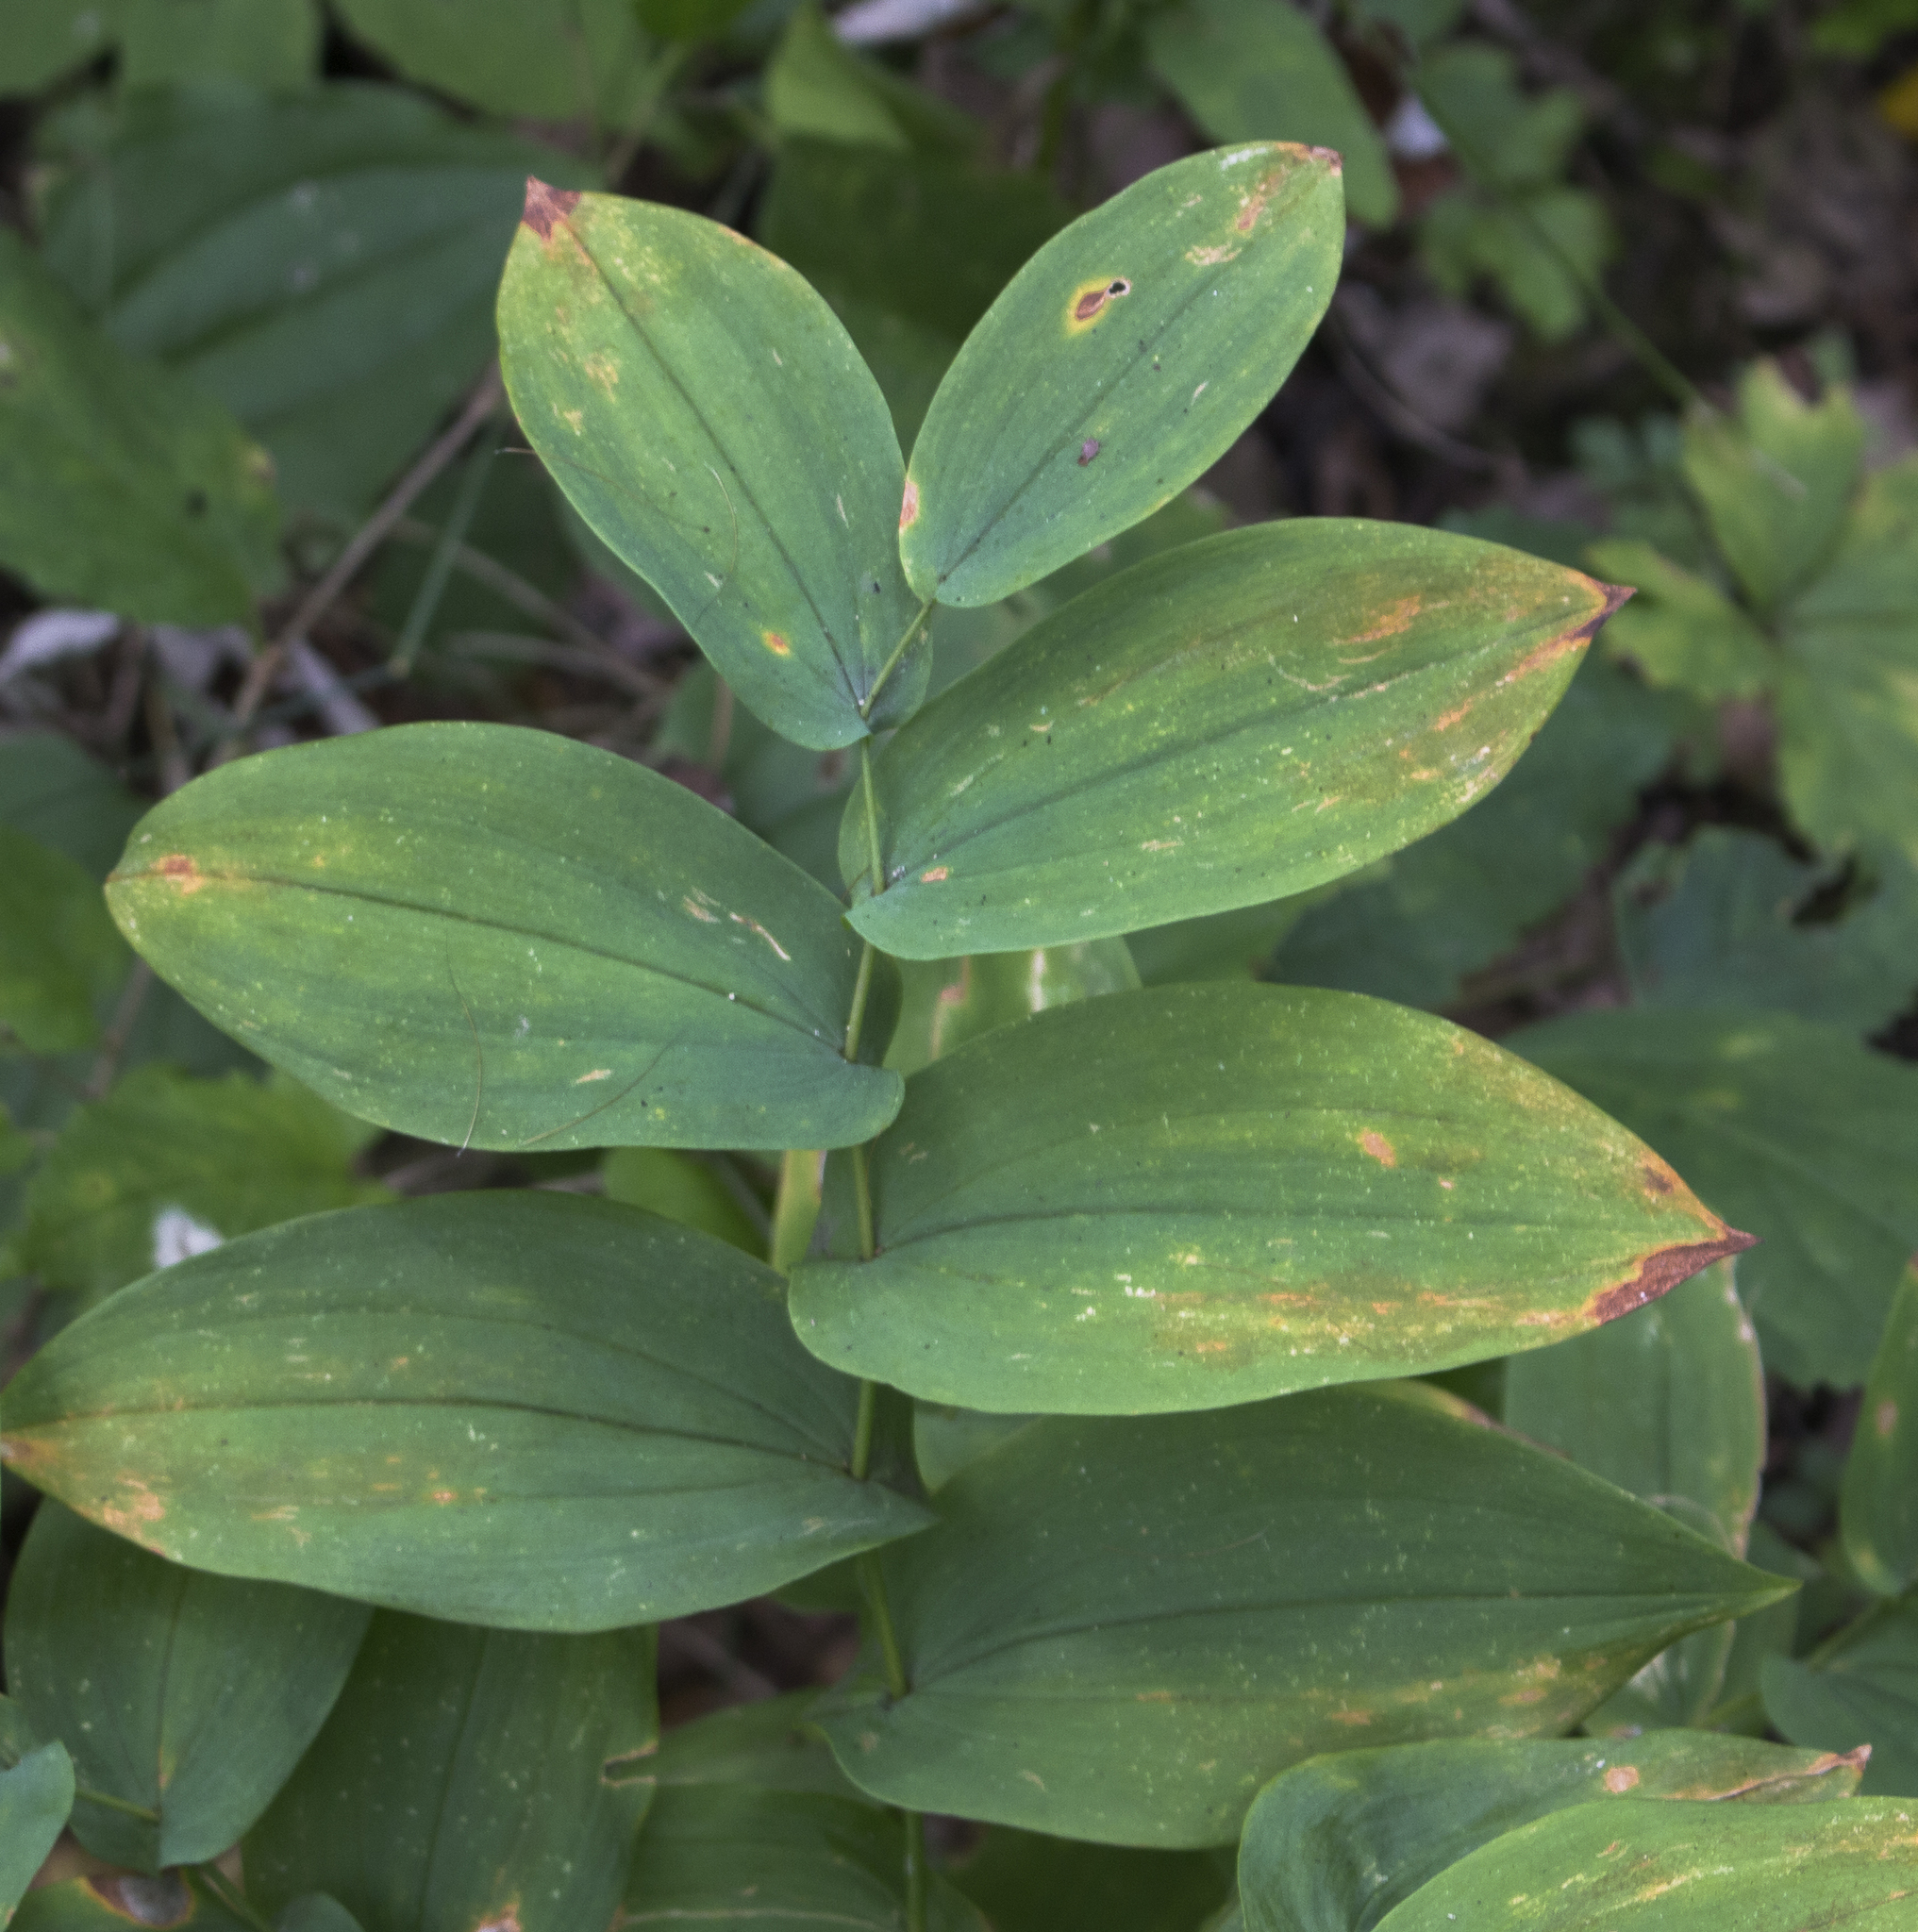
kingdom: Plantae
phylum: Tracheophyta
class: Liliopsida
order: Liliales
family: Colchicaceae
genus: Uvularia
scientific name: Uvularia grandiflora
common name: Bellwort
